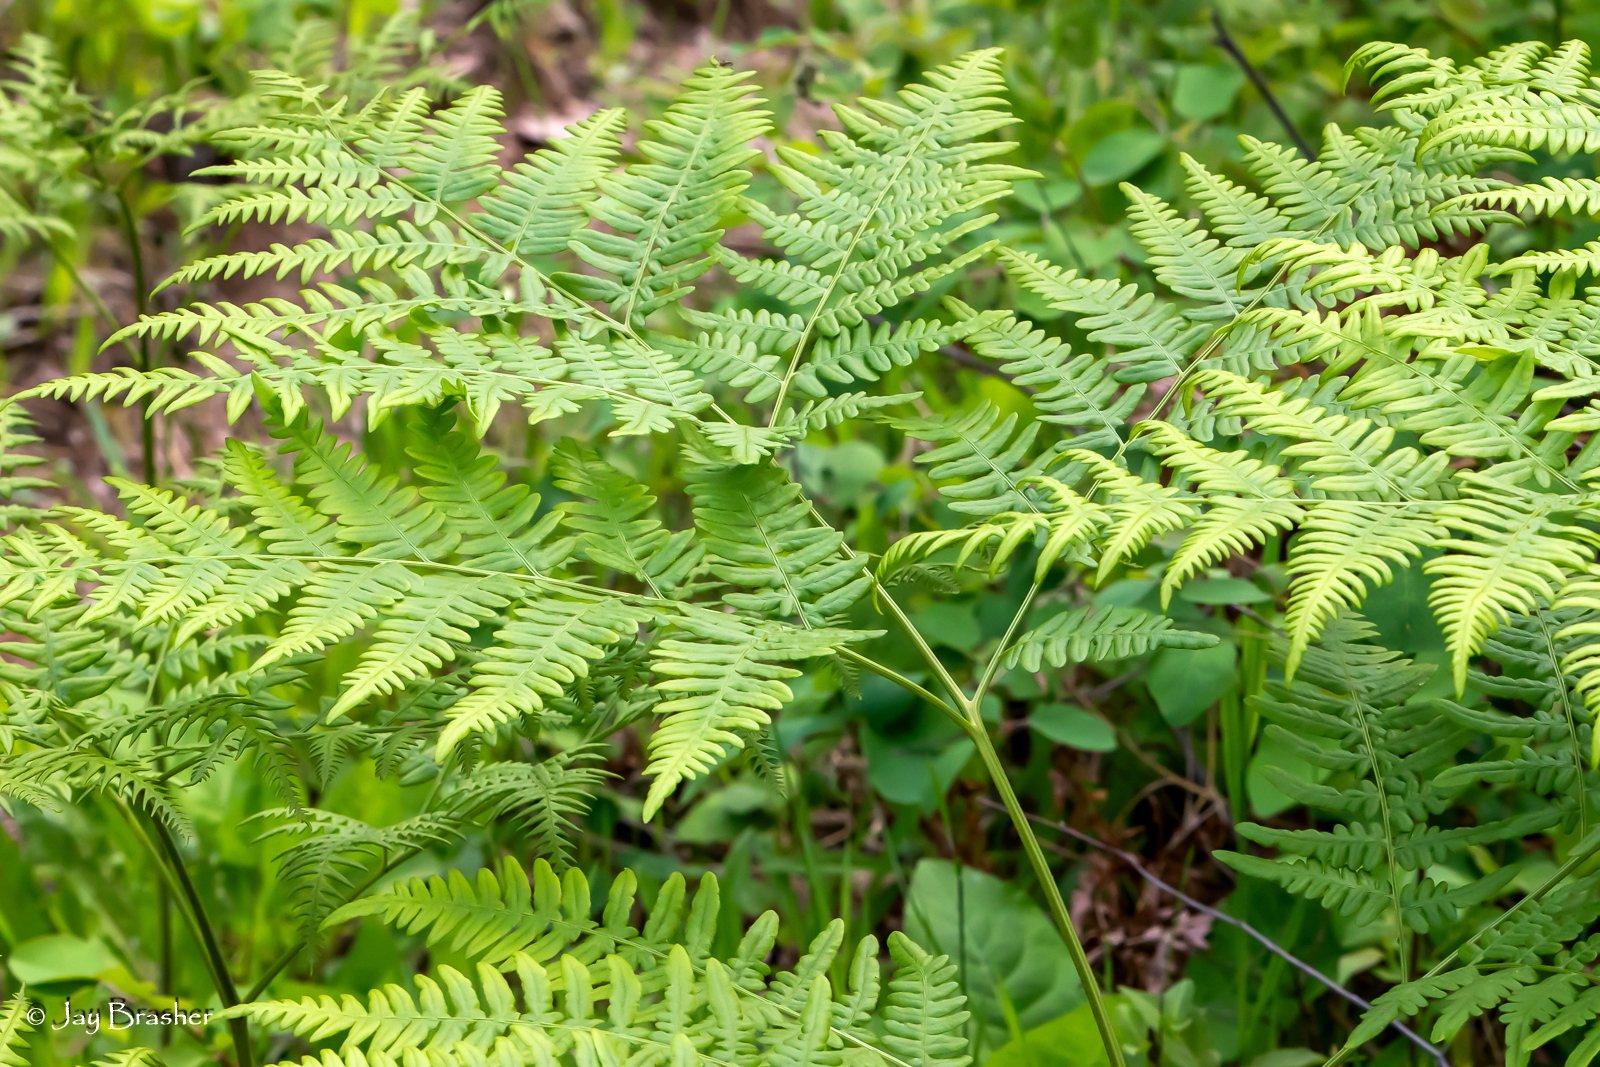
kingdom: Plantae
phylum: Tracheophyta
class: Polypodiopsida
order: Polypodiales
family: Dennstaedtiaceae
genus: Pteridium
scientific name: Pteridium aquilinum
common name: Bracken
